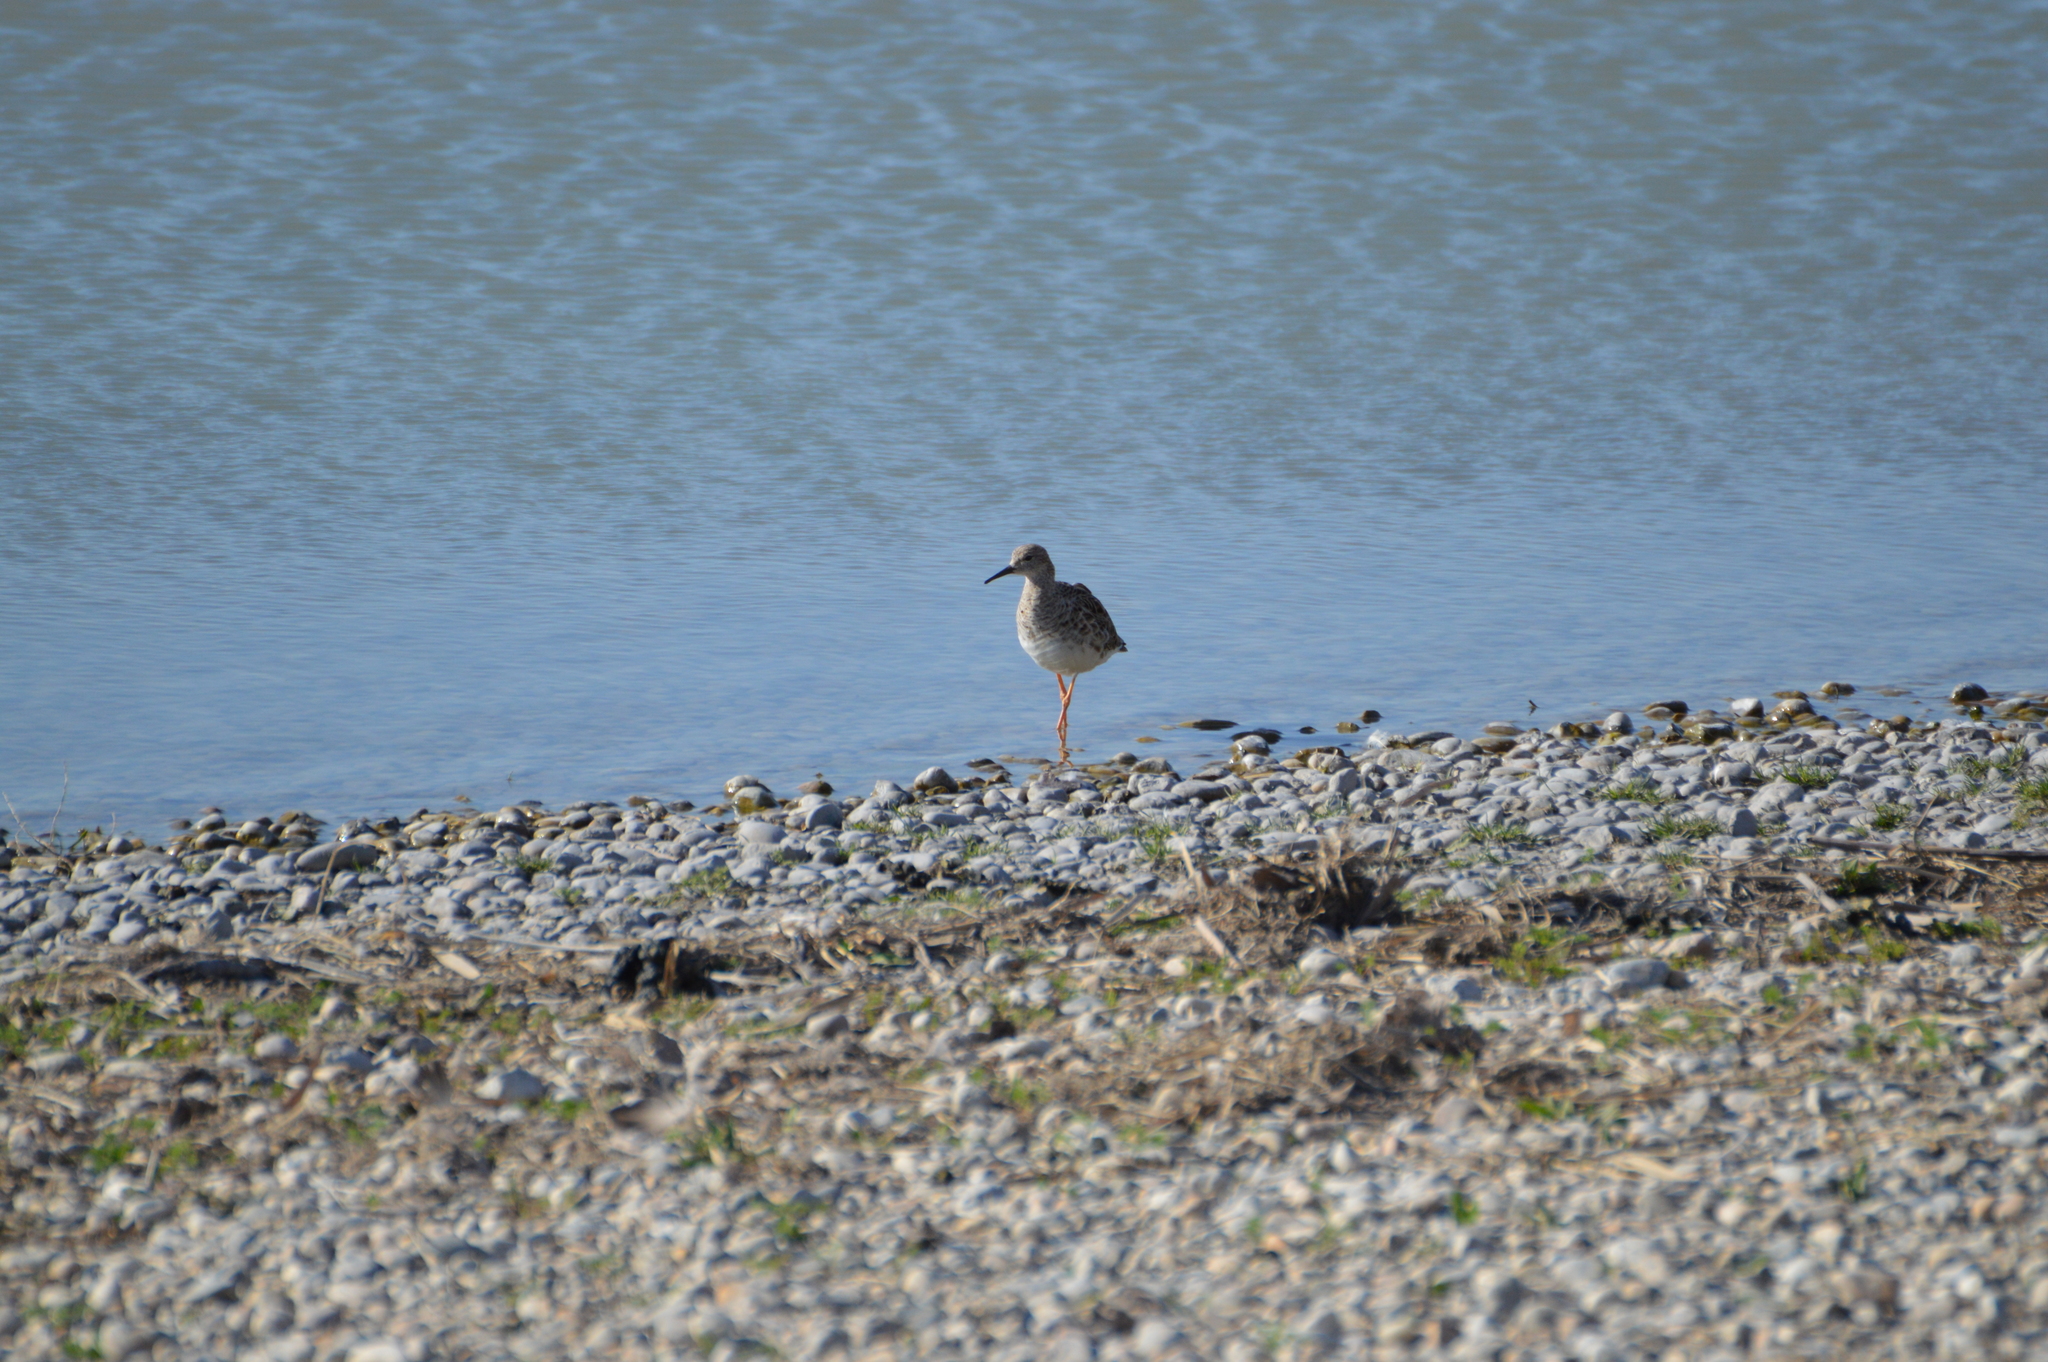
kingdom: Animalia
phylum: Chordata
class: Aves
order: Charadriiformes
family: Scolopacidae
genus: Calidris
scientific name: Calidris pugnax
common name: Ruff
